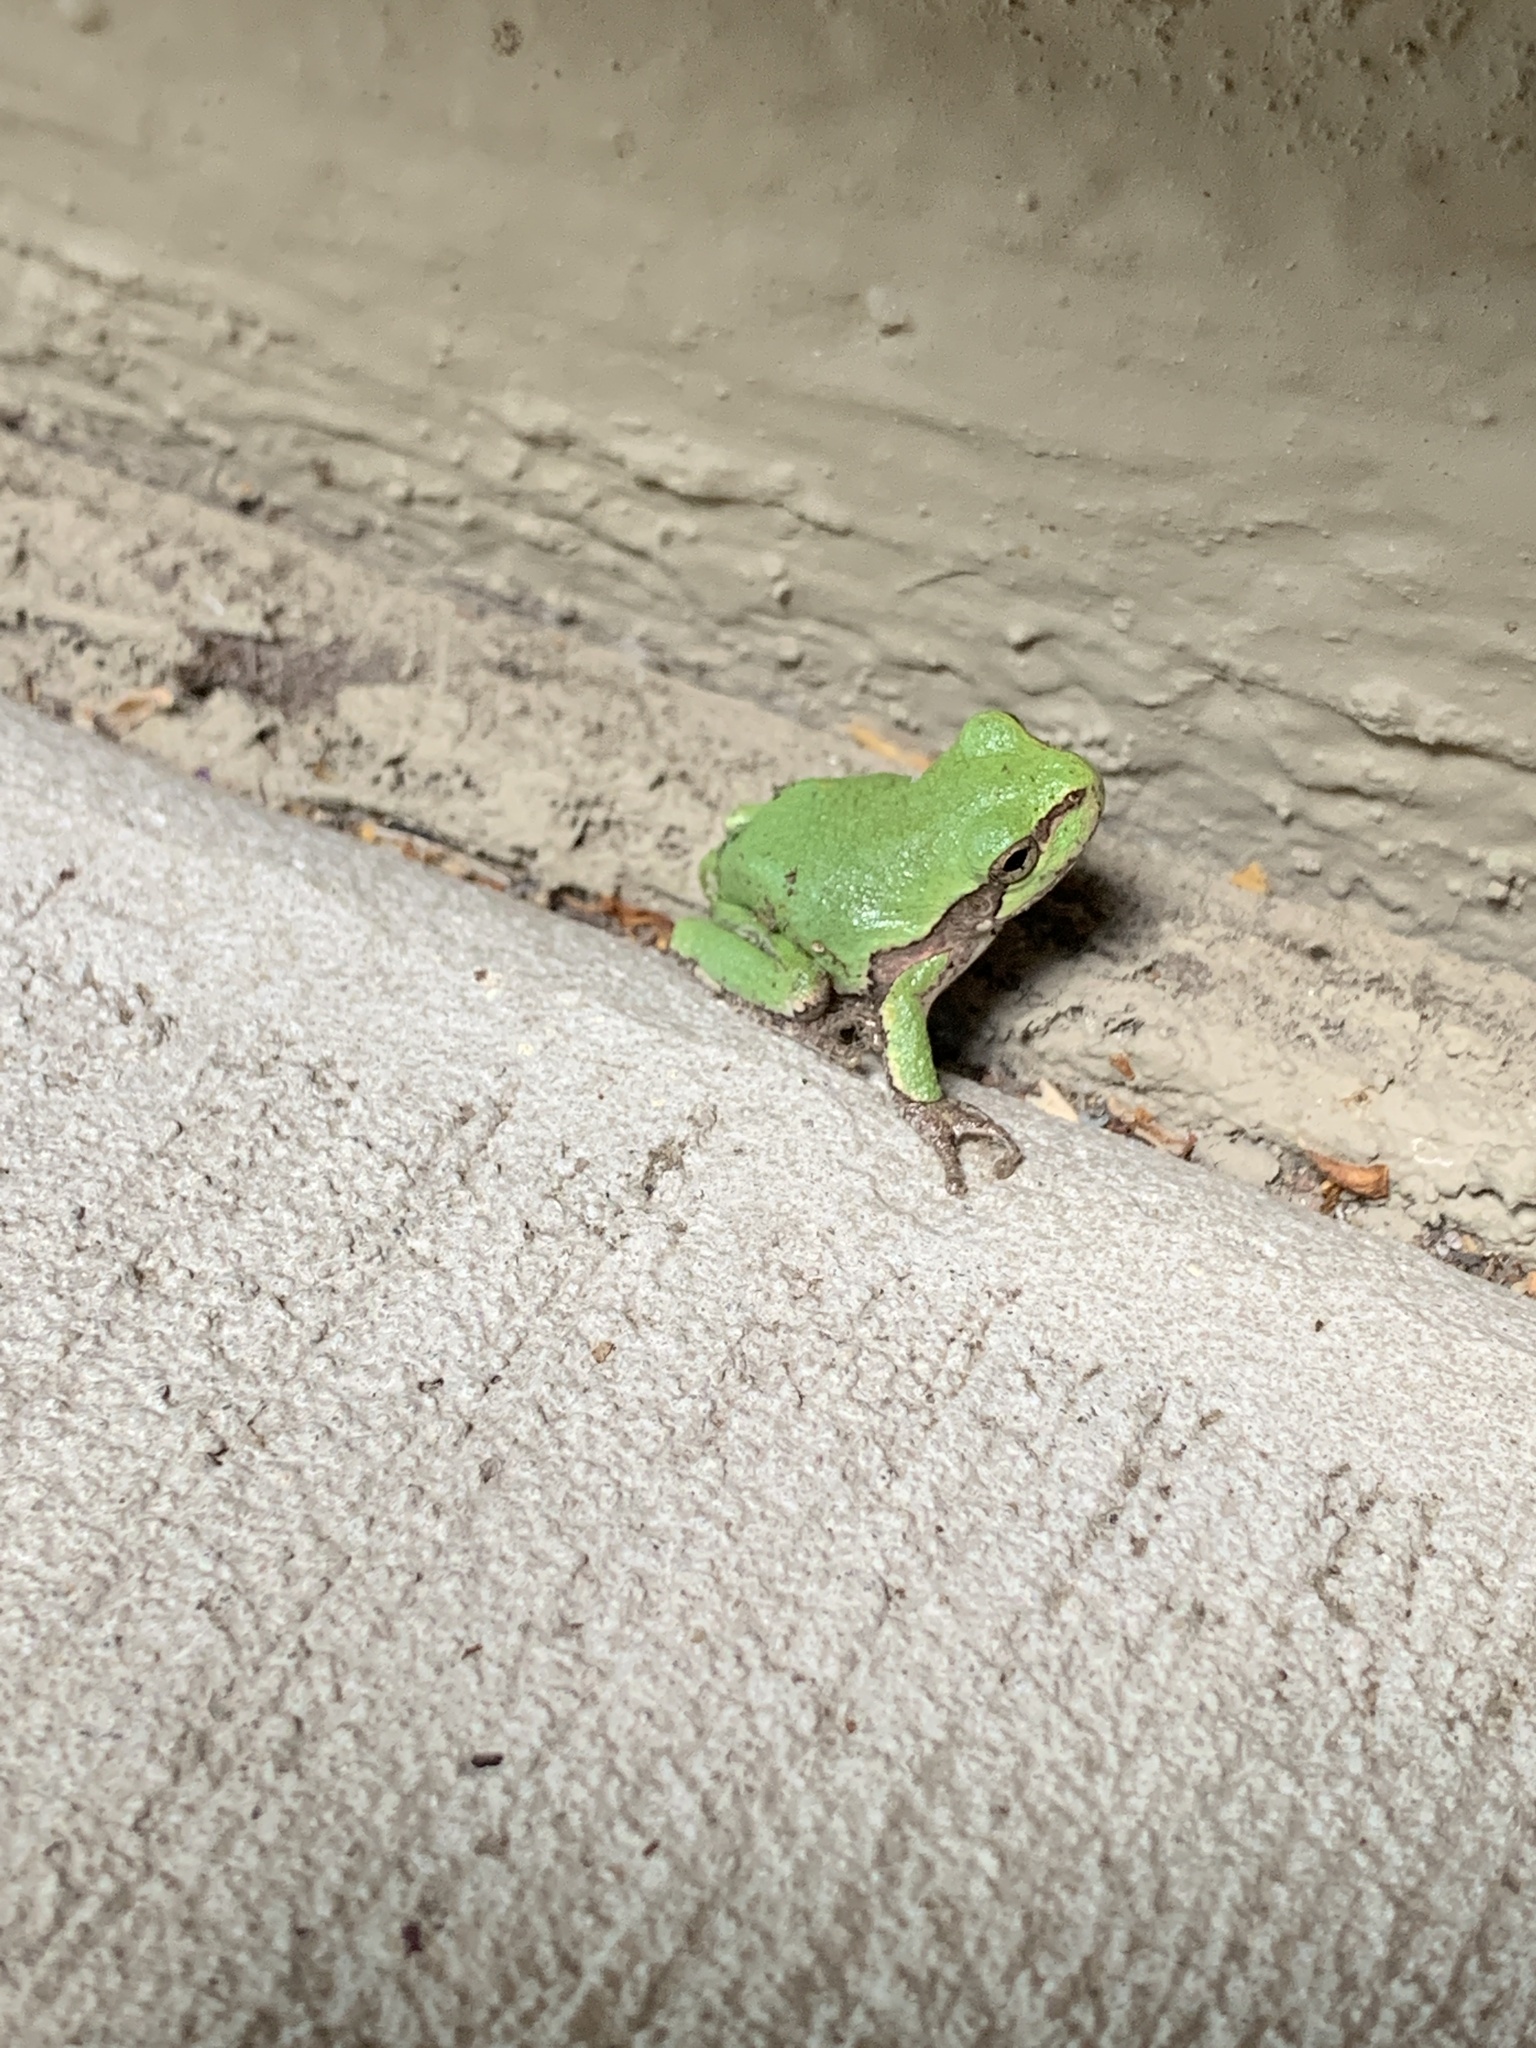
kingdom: Animalia
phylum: Chordata
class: Amphibia
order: Anura
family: Hylidae
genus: Hyla
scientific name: Hyla
